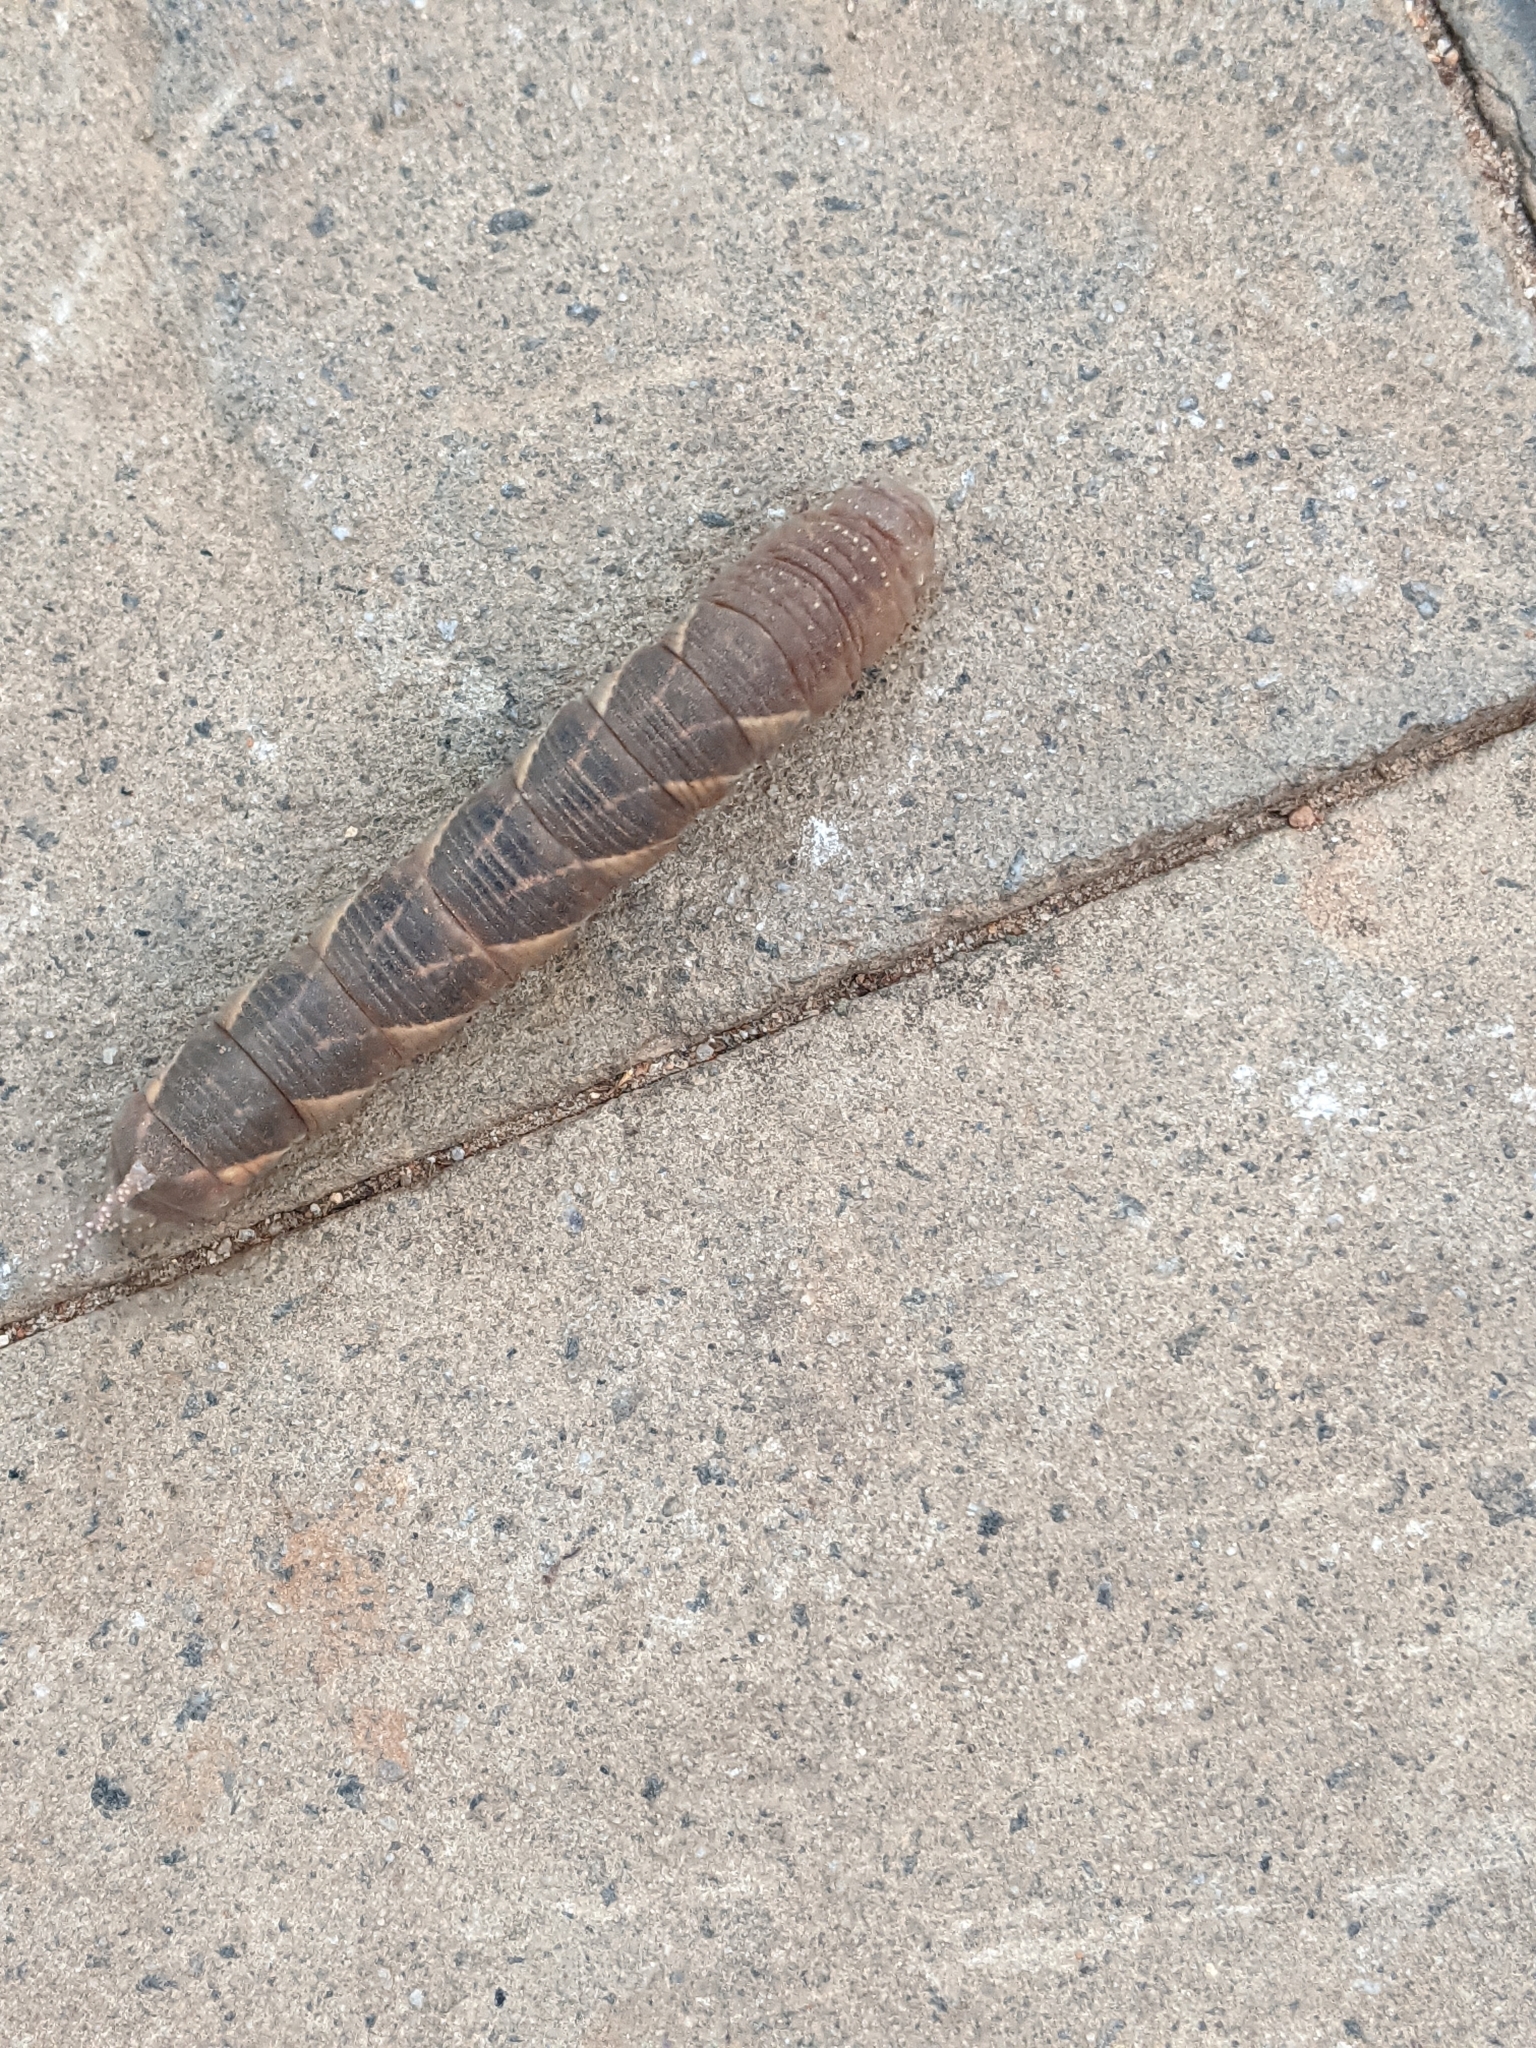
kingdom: Animalia
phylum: Arthropoda
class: Insecta
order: Lepidoptera
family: Sphingidae
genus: Psilogramma
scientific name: Psilogramma increta
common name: Gray hawk moth
